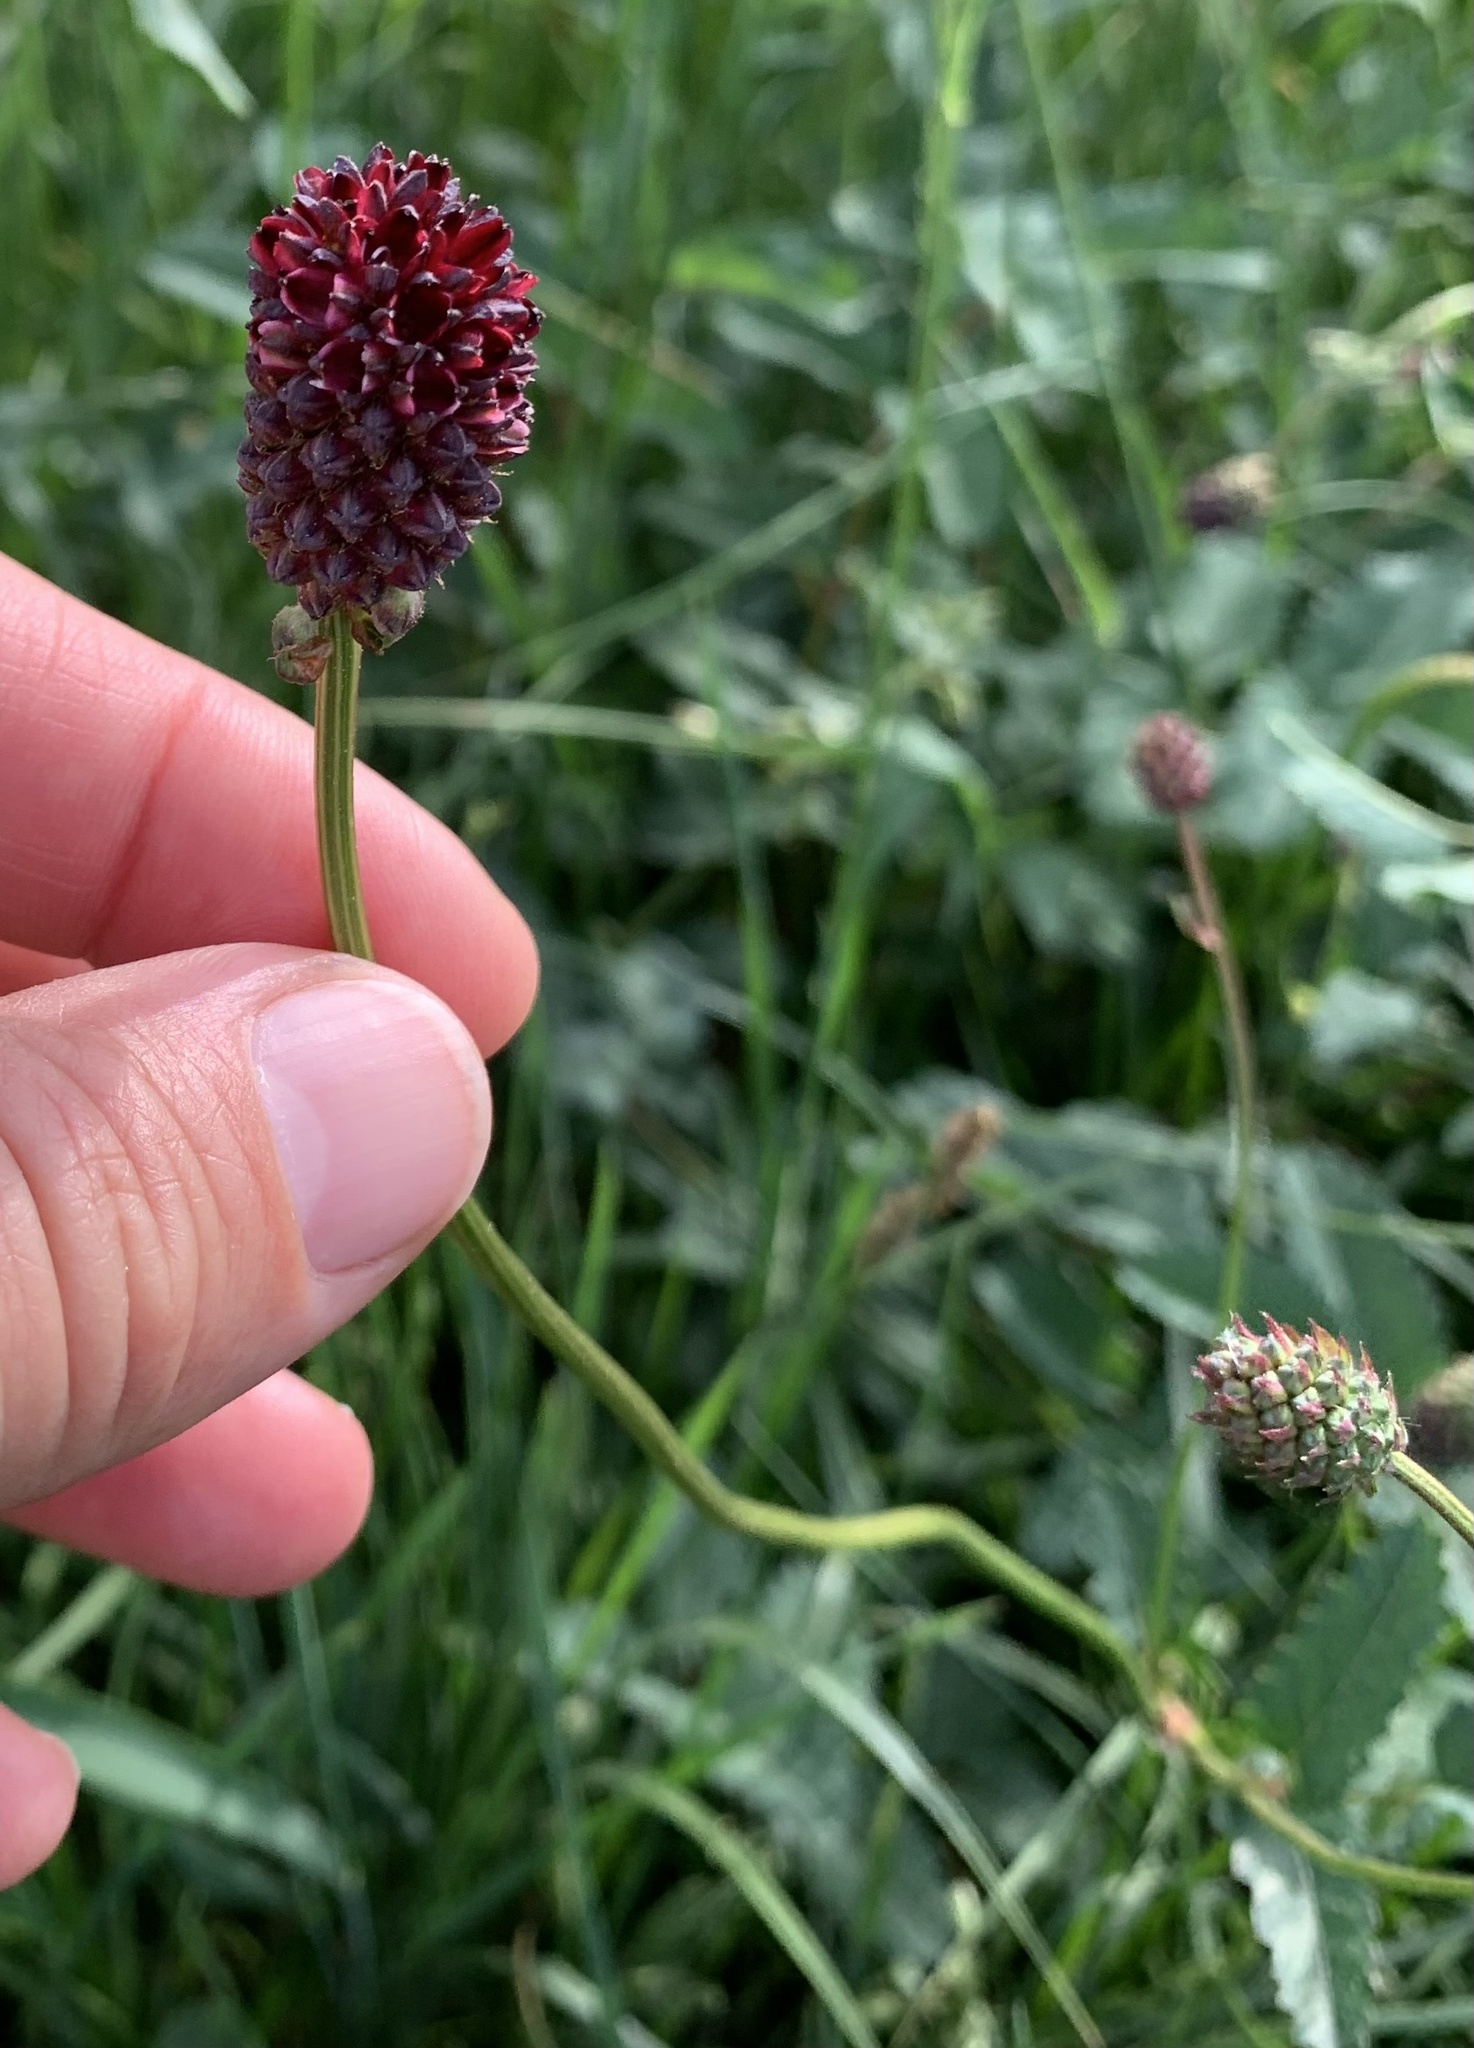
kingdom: Plantae
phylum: Tracheophyta
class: Magnoliopsida
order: Rosales
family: Rosaceae
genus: Sanguisorba
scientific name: Sanguisorba officinalis
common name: Great burnet
